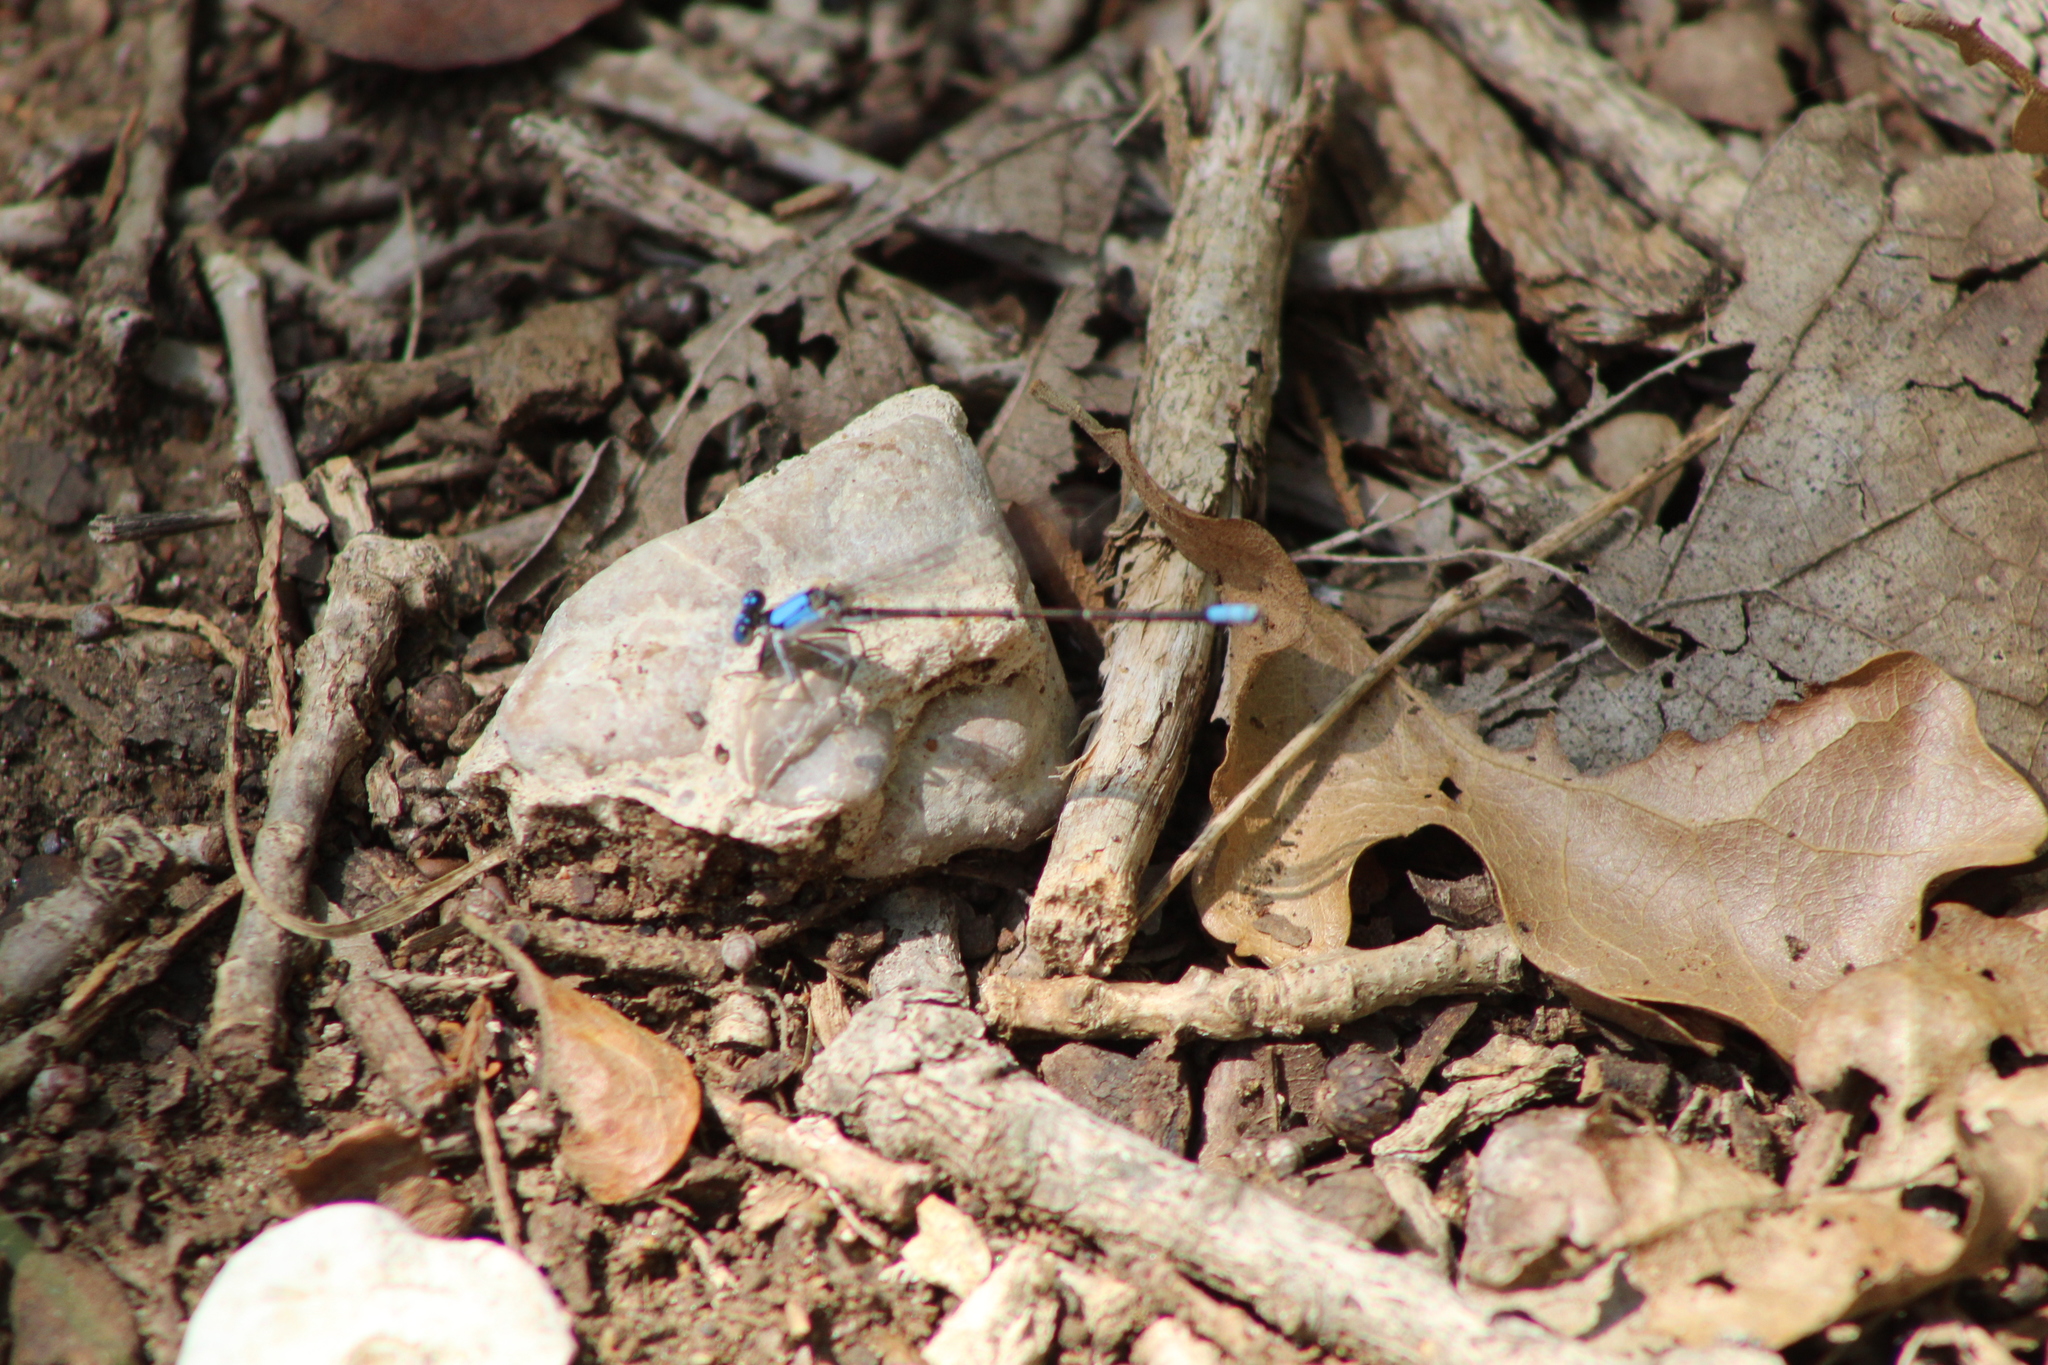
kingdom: Animalia
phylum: Arthropoda
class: Insecta
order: Odonata
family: Coenagrionidae
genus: Argia
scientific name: Argia apicalis
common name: Blue-fronted dancer
